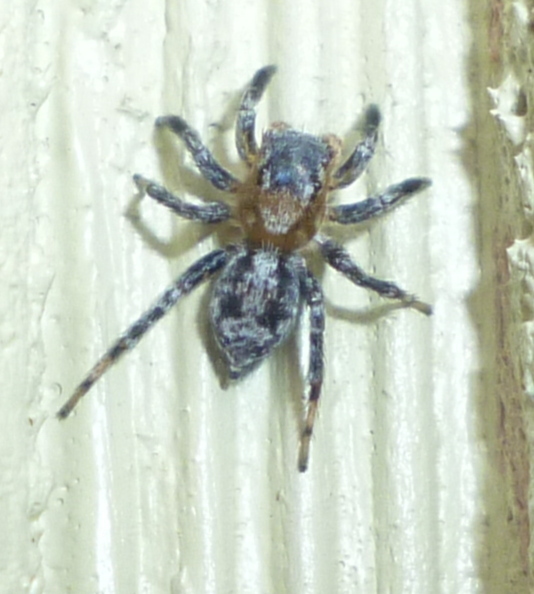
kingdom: Animalia
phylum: Arthropoda
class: Arachnida
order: Araneae
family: Salticidae
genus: Naphrys
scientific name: Naphrys pulex
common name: Flea jumping spider
